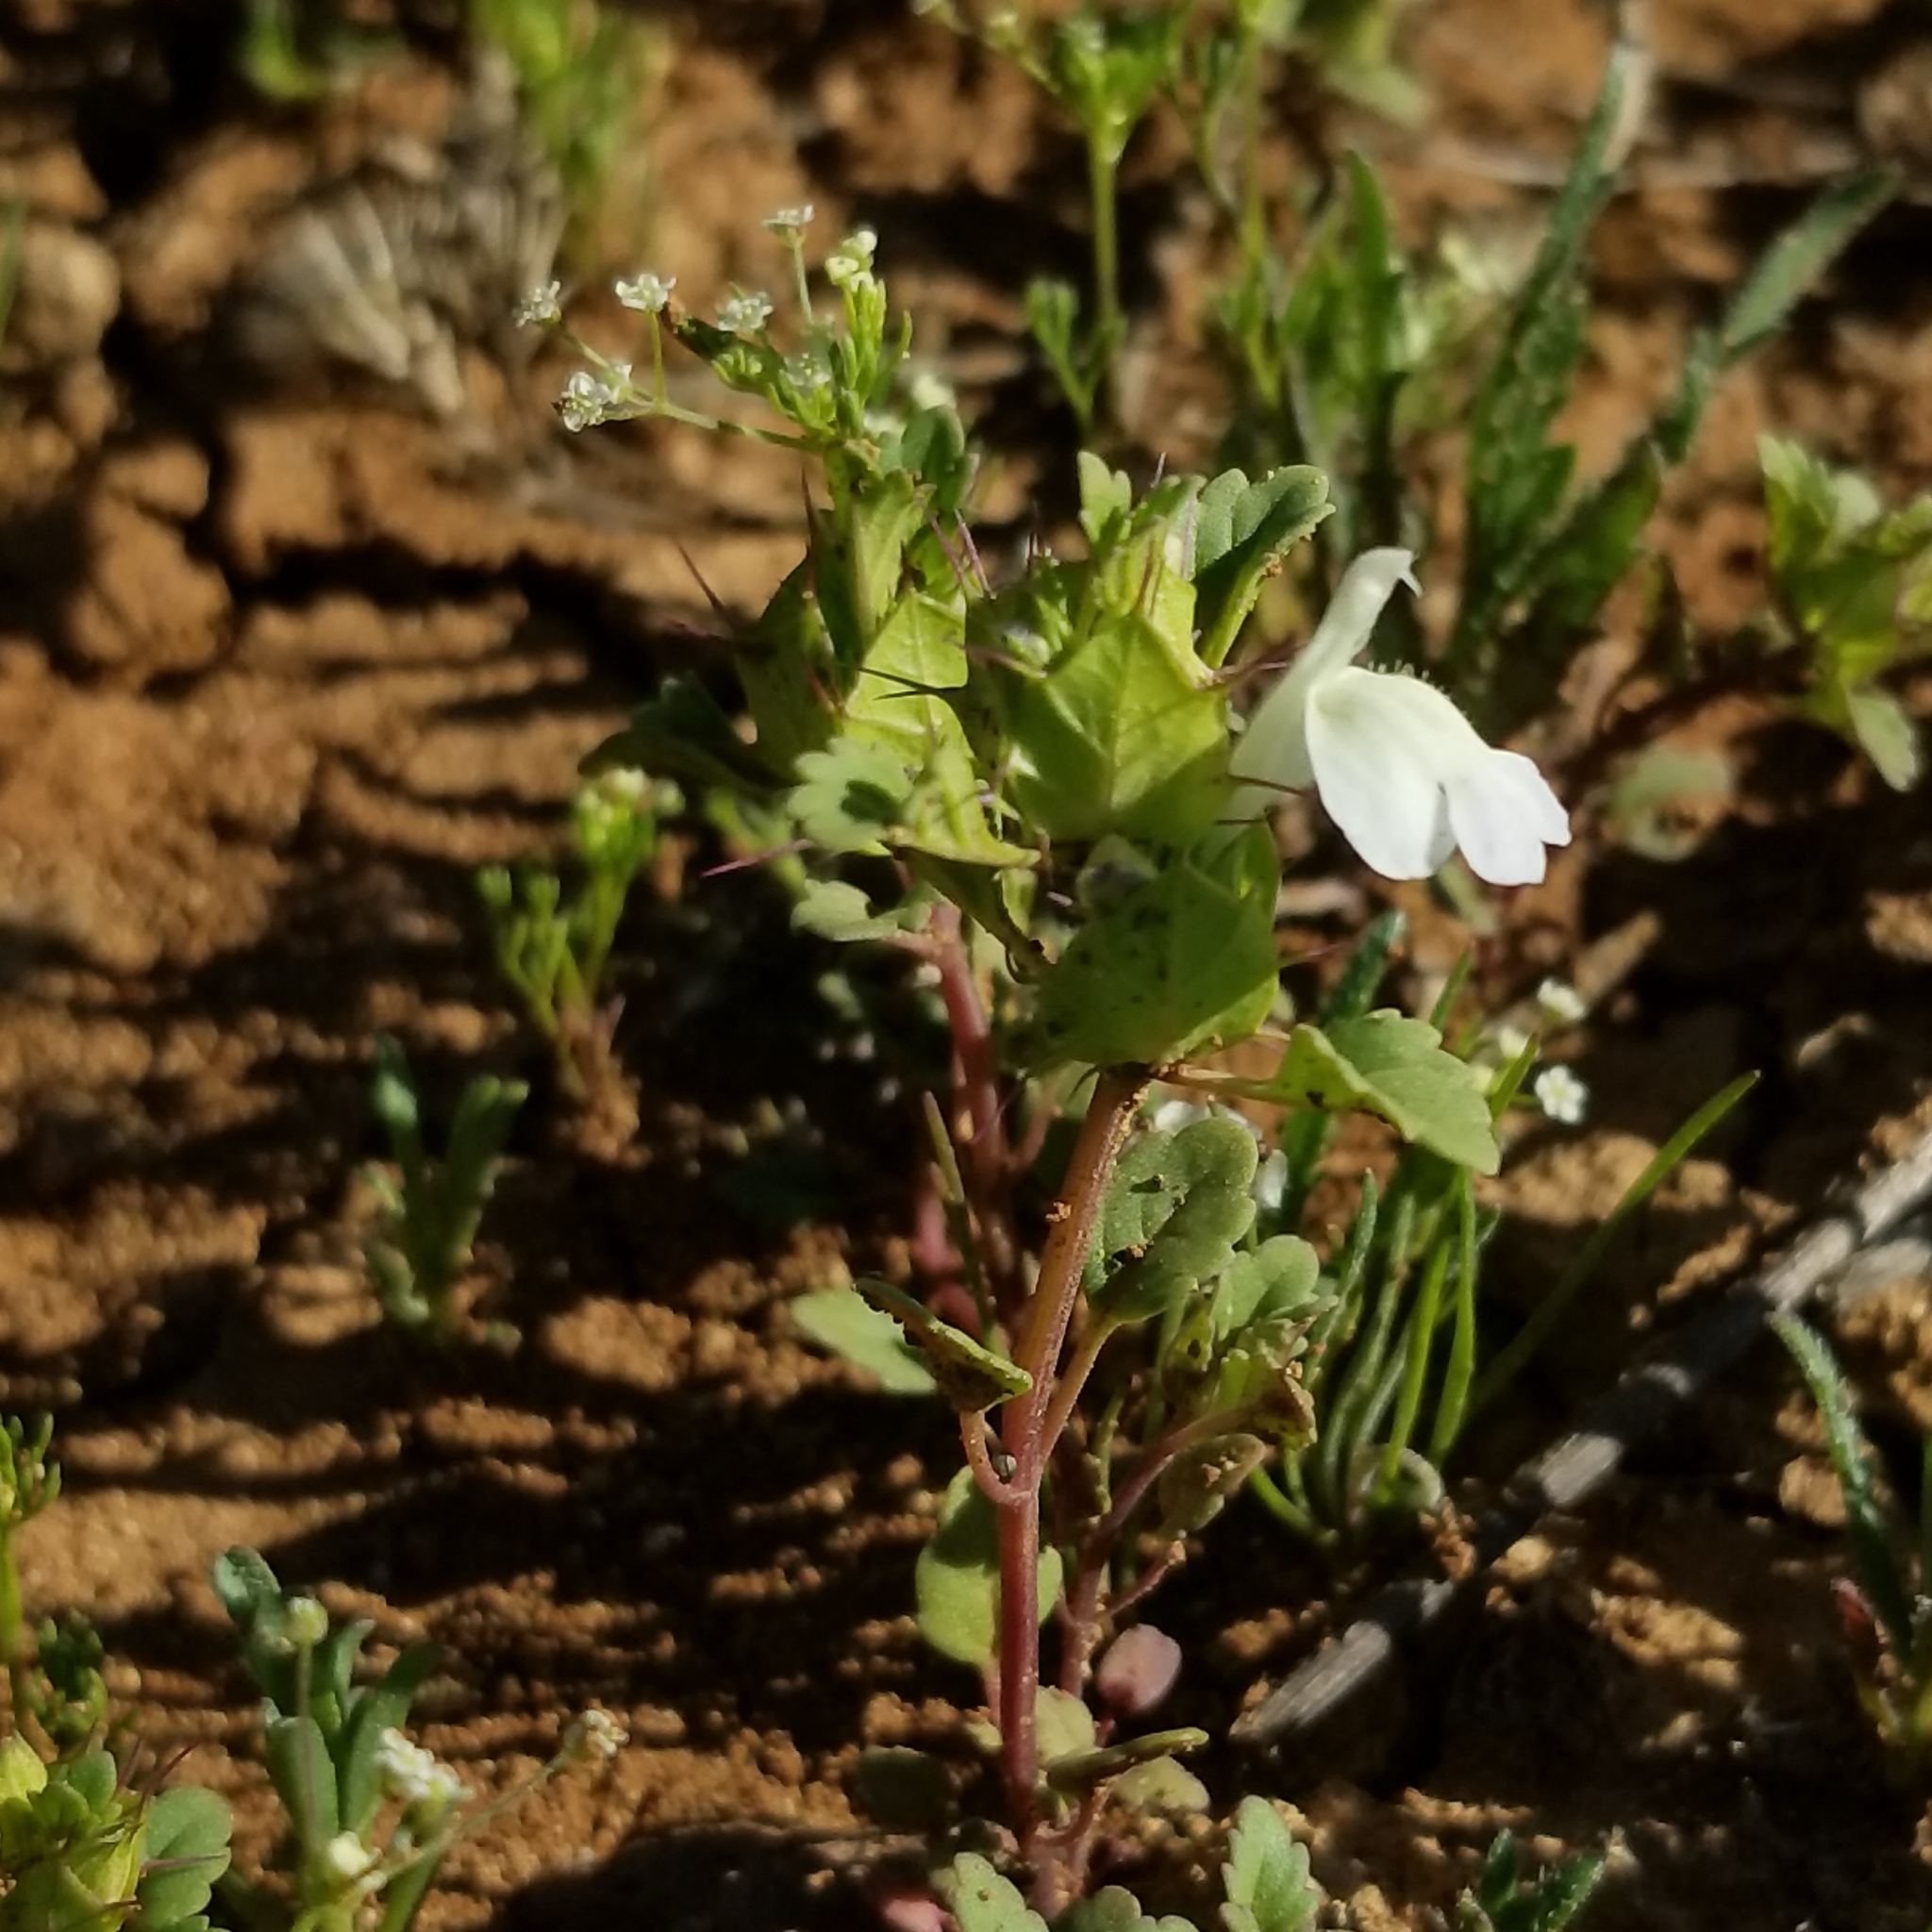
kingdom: Plantae
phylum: Tracheophyta
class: Magnoliopsida
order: Lamiales
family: Lamiaceae
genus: Acanthomintha
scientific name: Acanthomintha ilicifolia
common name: San diego thorn-mint
